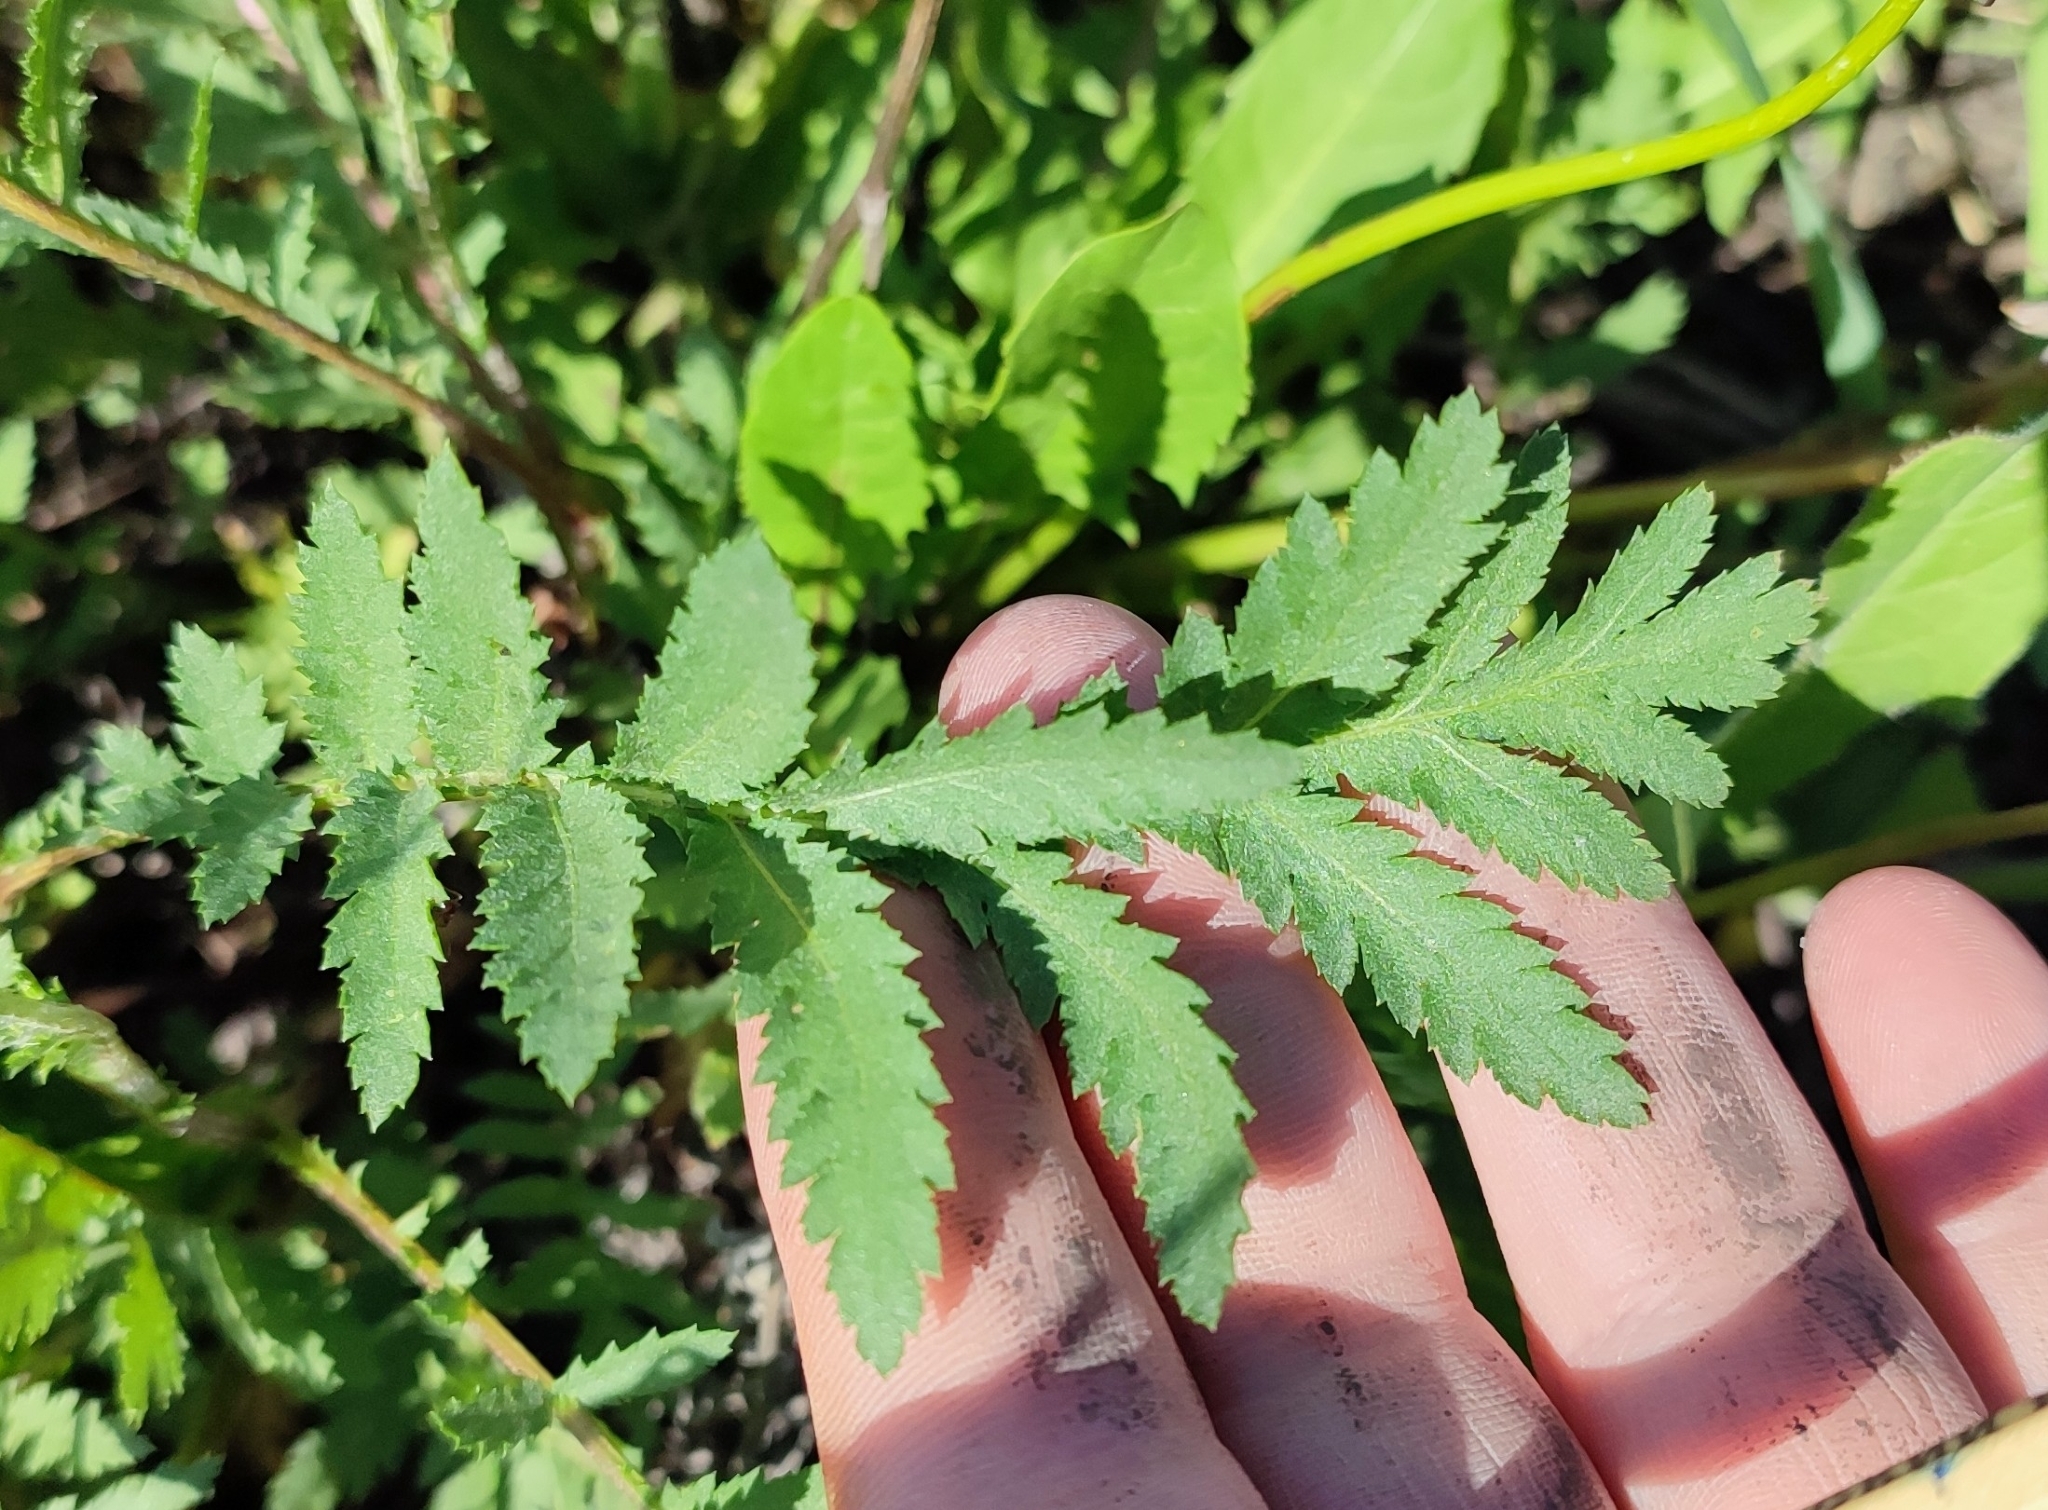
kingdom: Plantae
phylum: Tracheophyta
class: Magnoliopsida
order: Asterales
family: Asteraceae
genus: Tanacetum
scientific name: Tanacetum vulgare
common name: Common tansy
